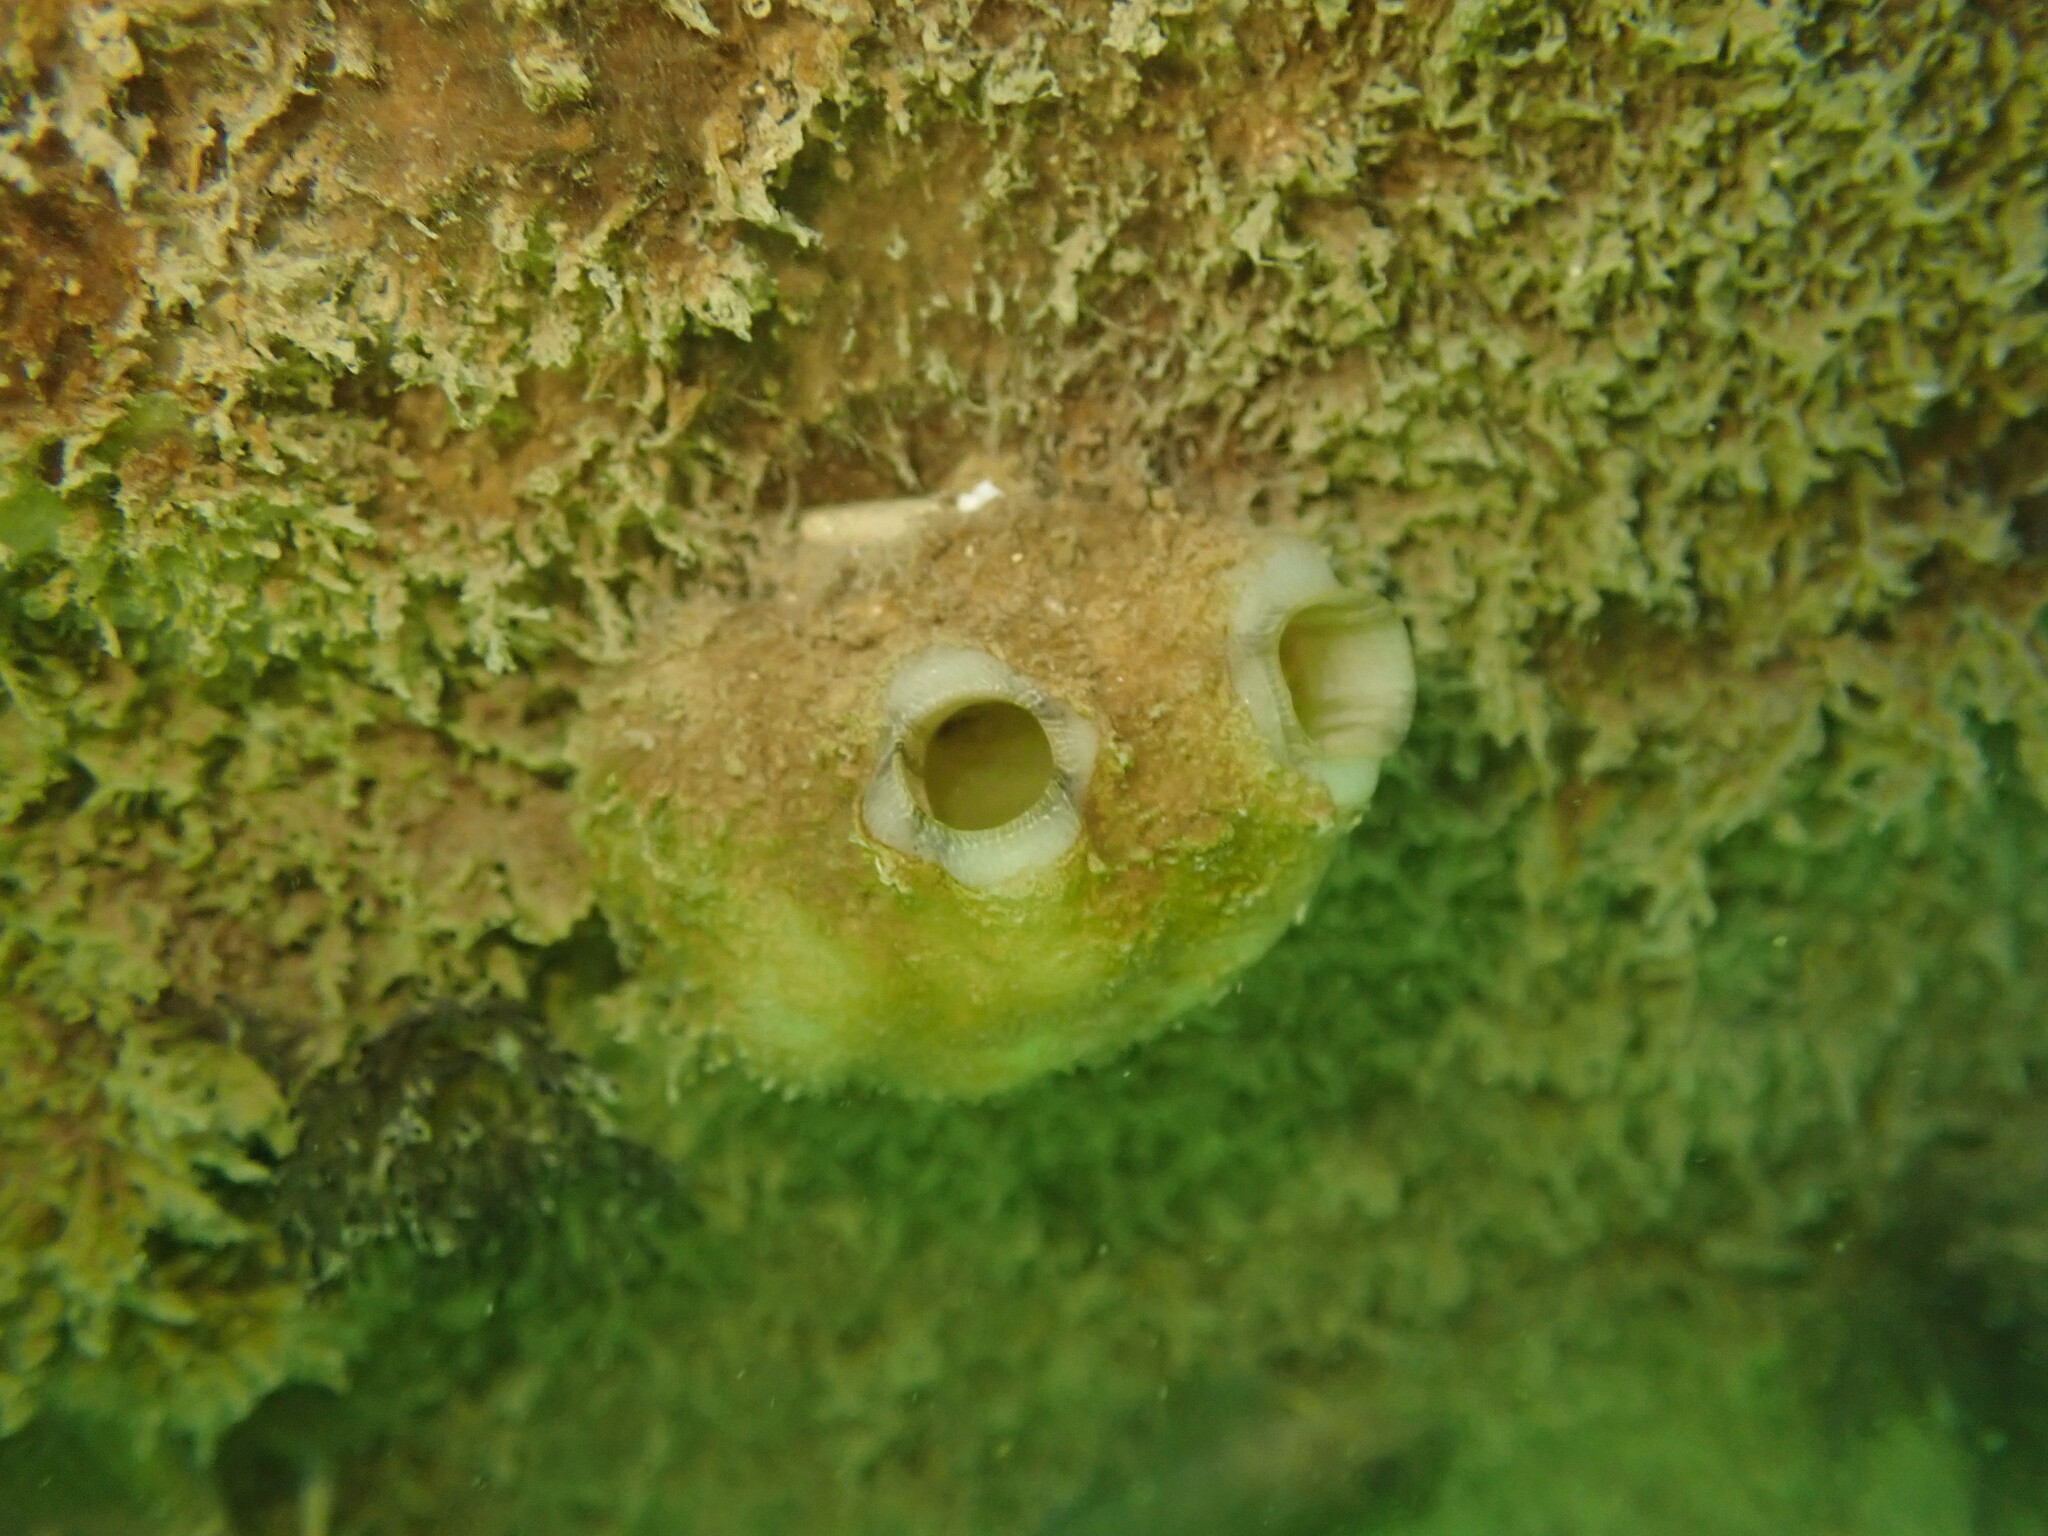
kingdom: Animalia
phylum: Chordata
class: Ascidiacea
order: Stolidobranchia
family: Styelidae
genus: Styela
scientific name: Styela plicata
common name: Pleated tunicate
